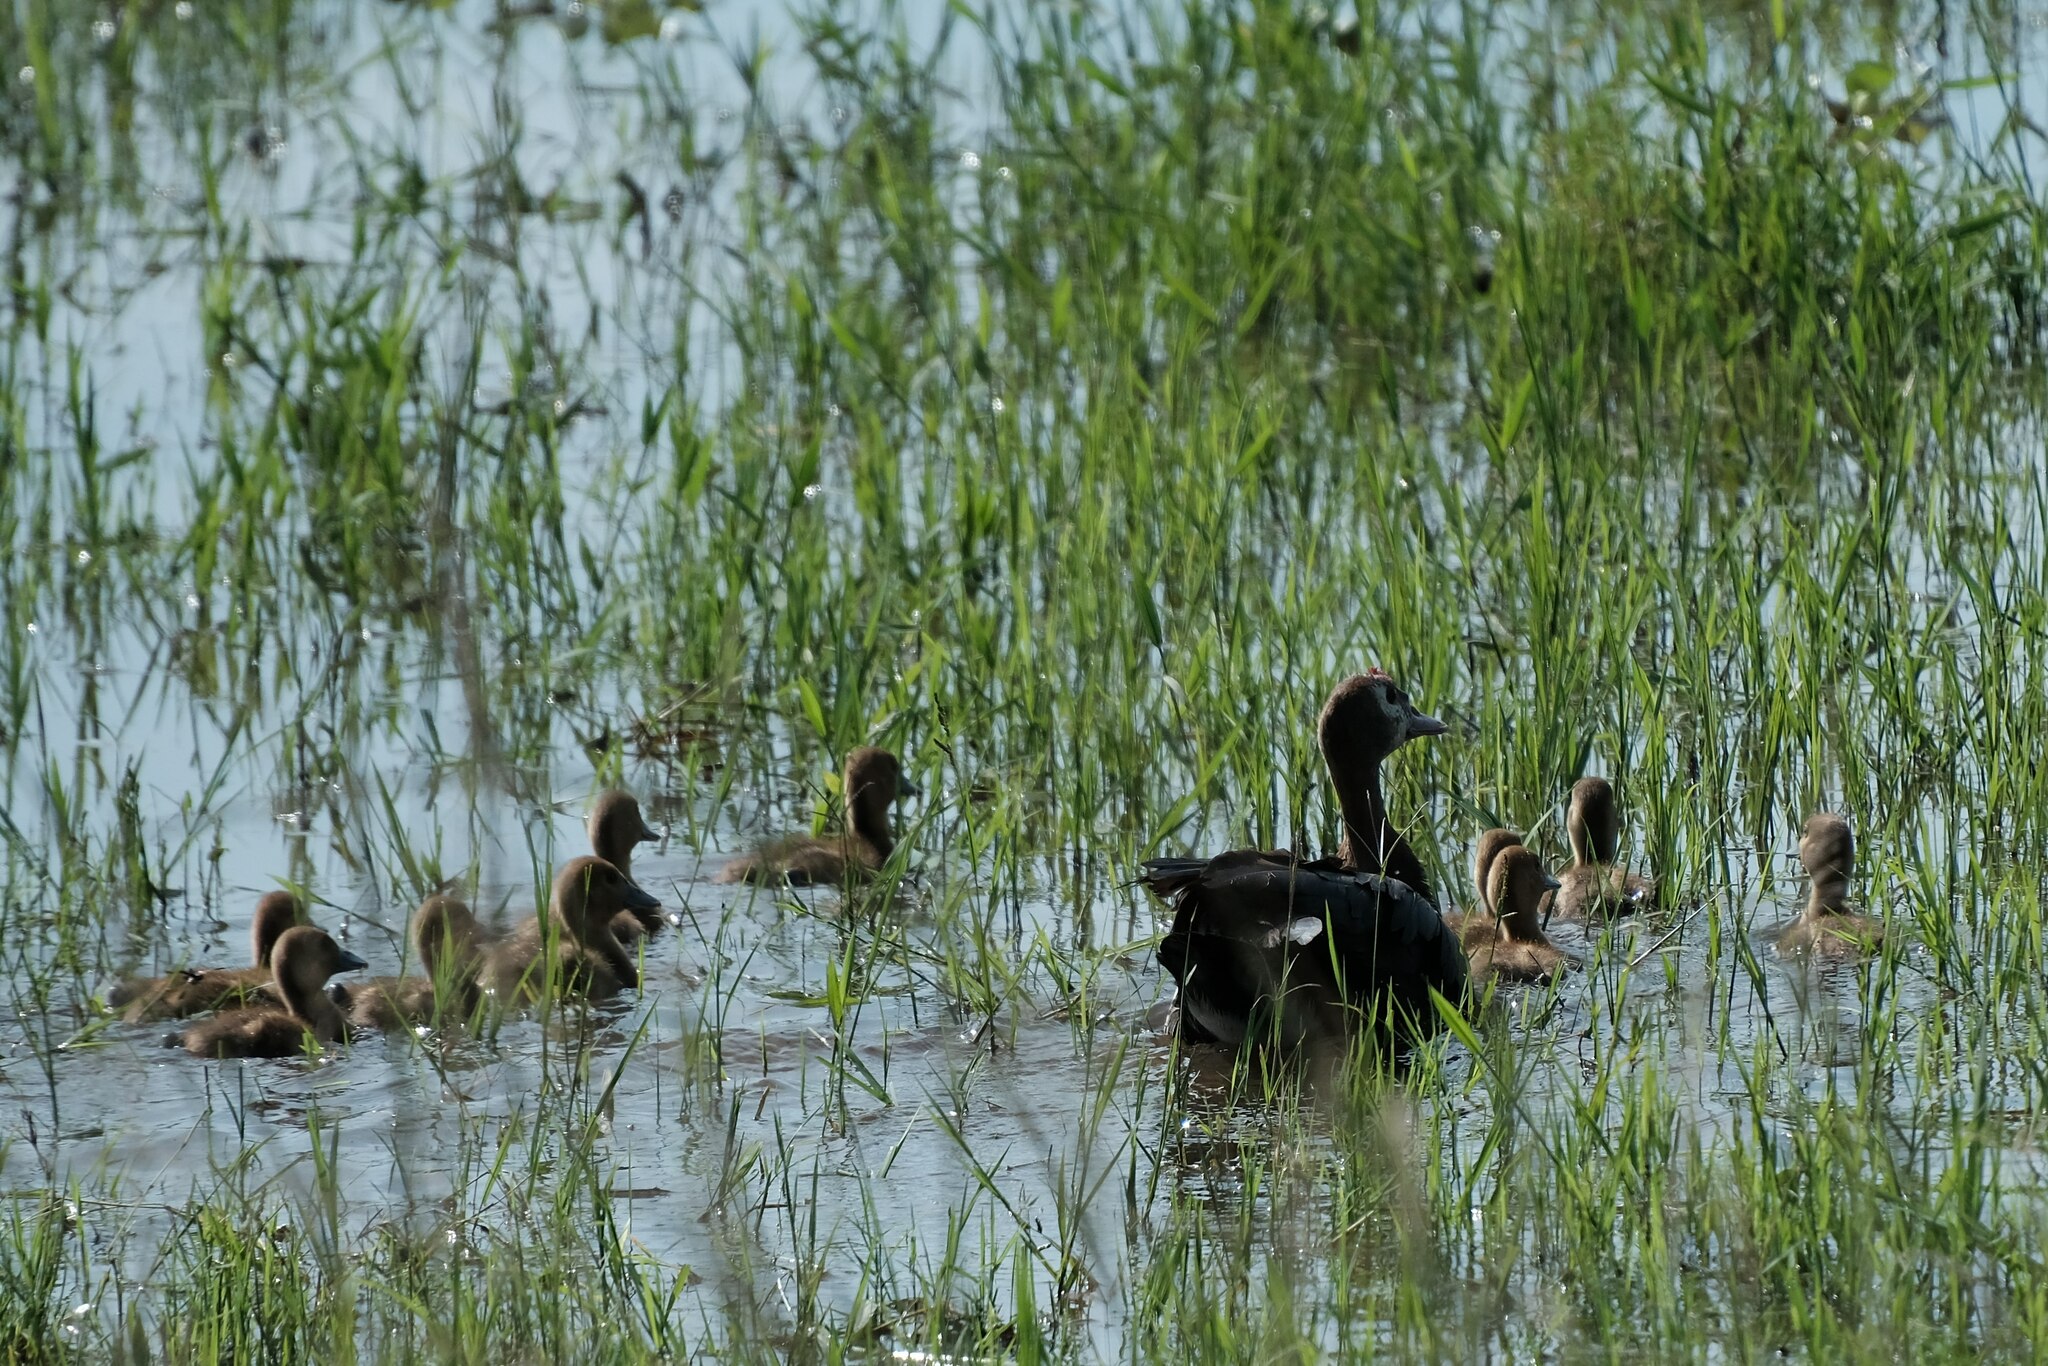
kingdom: Animalia
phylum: Chordata
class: Aves
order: Anseriformes
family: Anatidae
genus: Plectropterus
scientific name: Plectropterus gambensis
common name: Spur-winged goose
